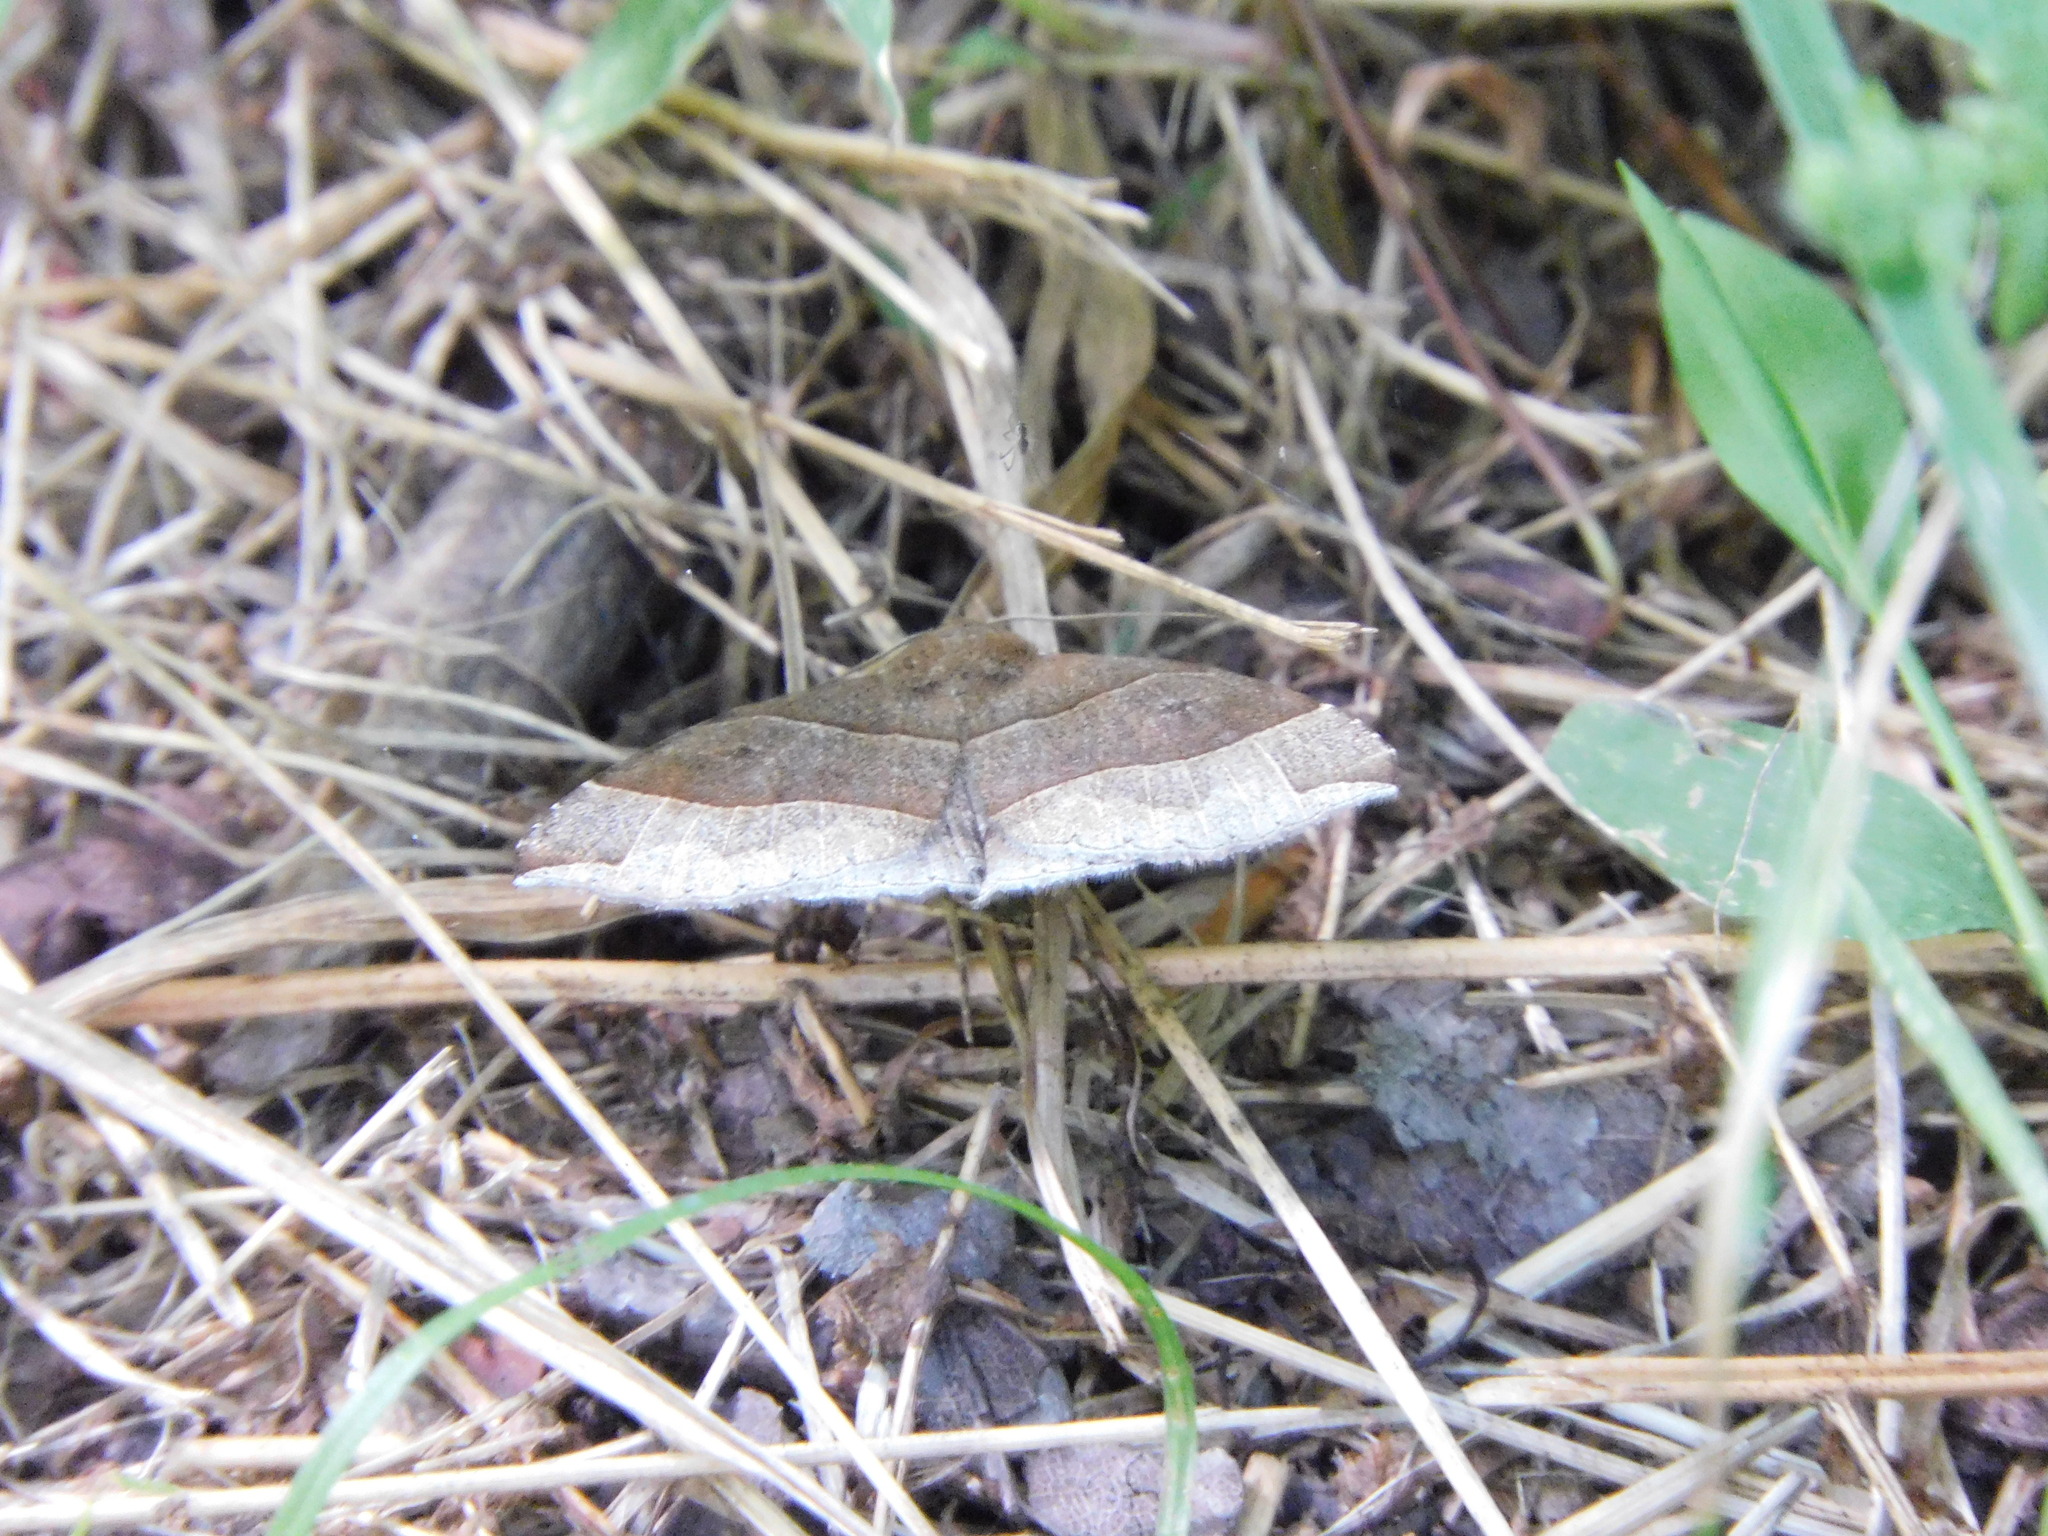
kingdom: Animalia
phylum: Arthropoda
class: Insecta
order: Lepidoptera
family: Erebidae
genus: Parallelia
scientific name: Parallelia bistriaris
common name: Maple looper moth
